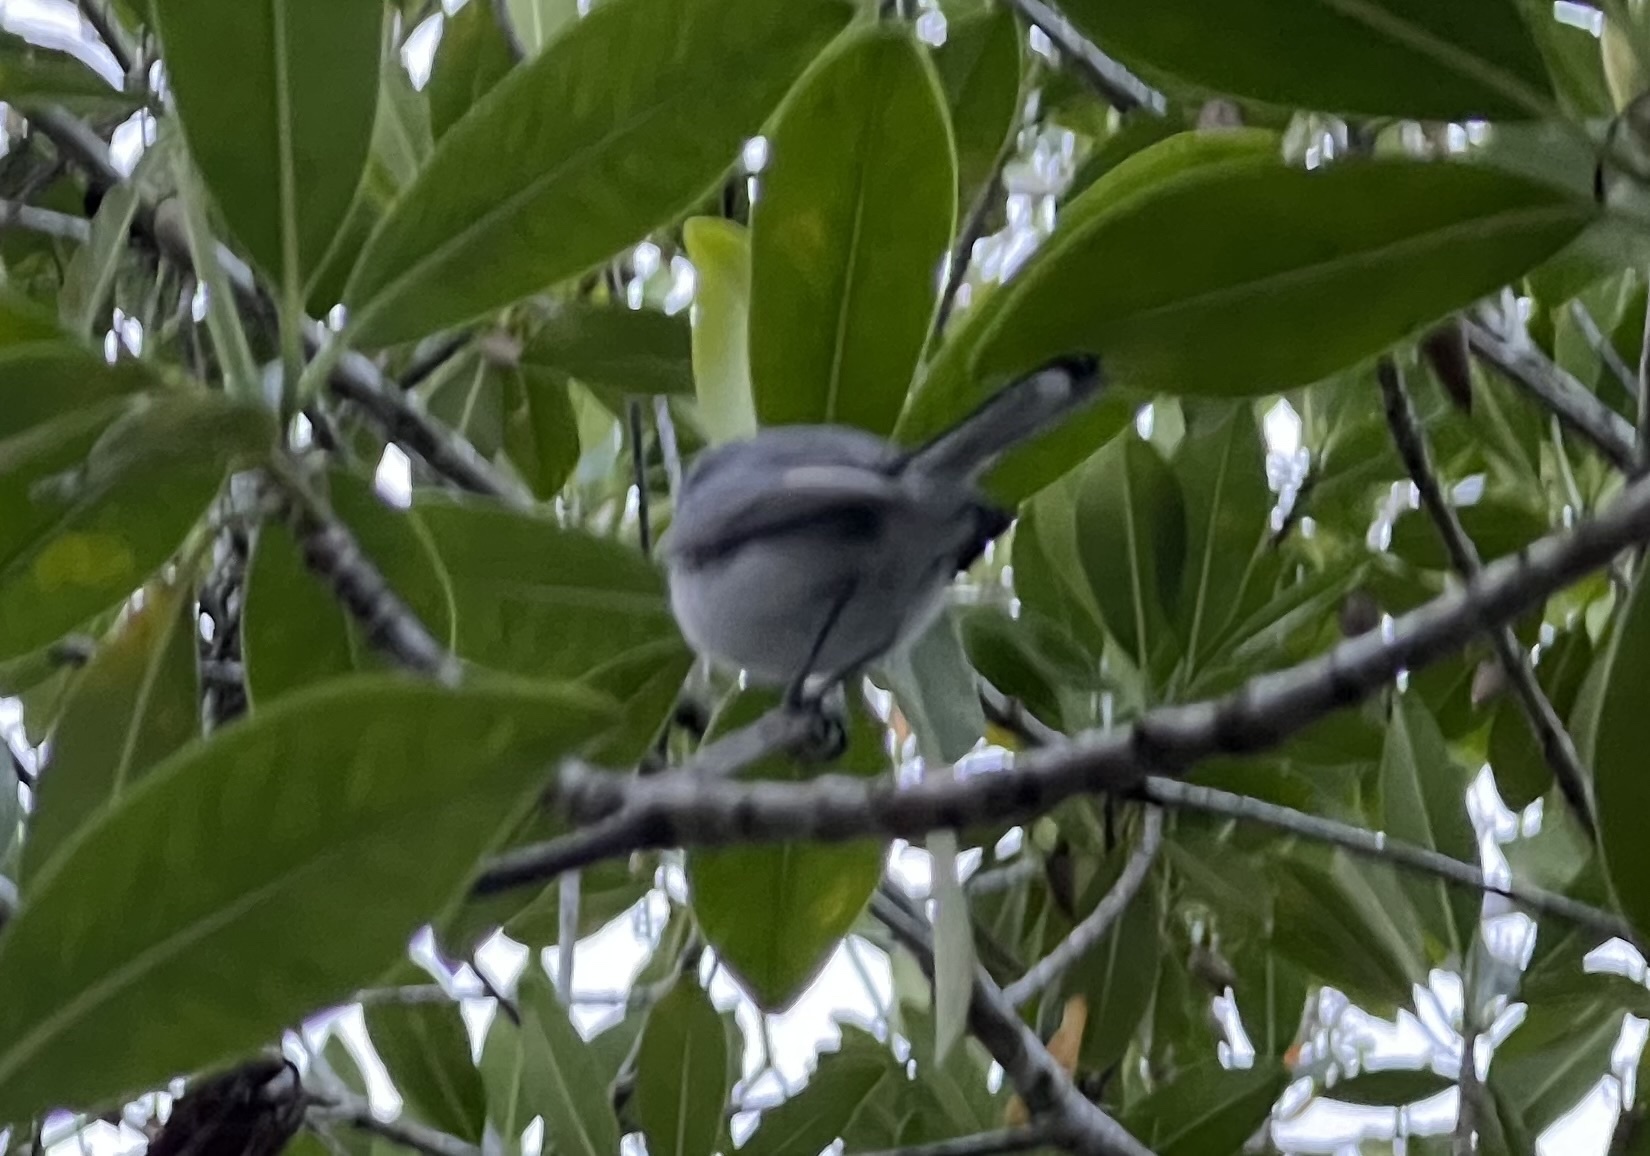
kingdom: Animalia
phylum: Chordata
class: Aves
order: Passeriformes
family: Polioptilidae
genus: Polioptila
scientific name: Polioptila caerulea
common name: Blue-gray gnatcatcher
